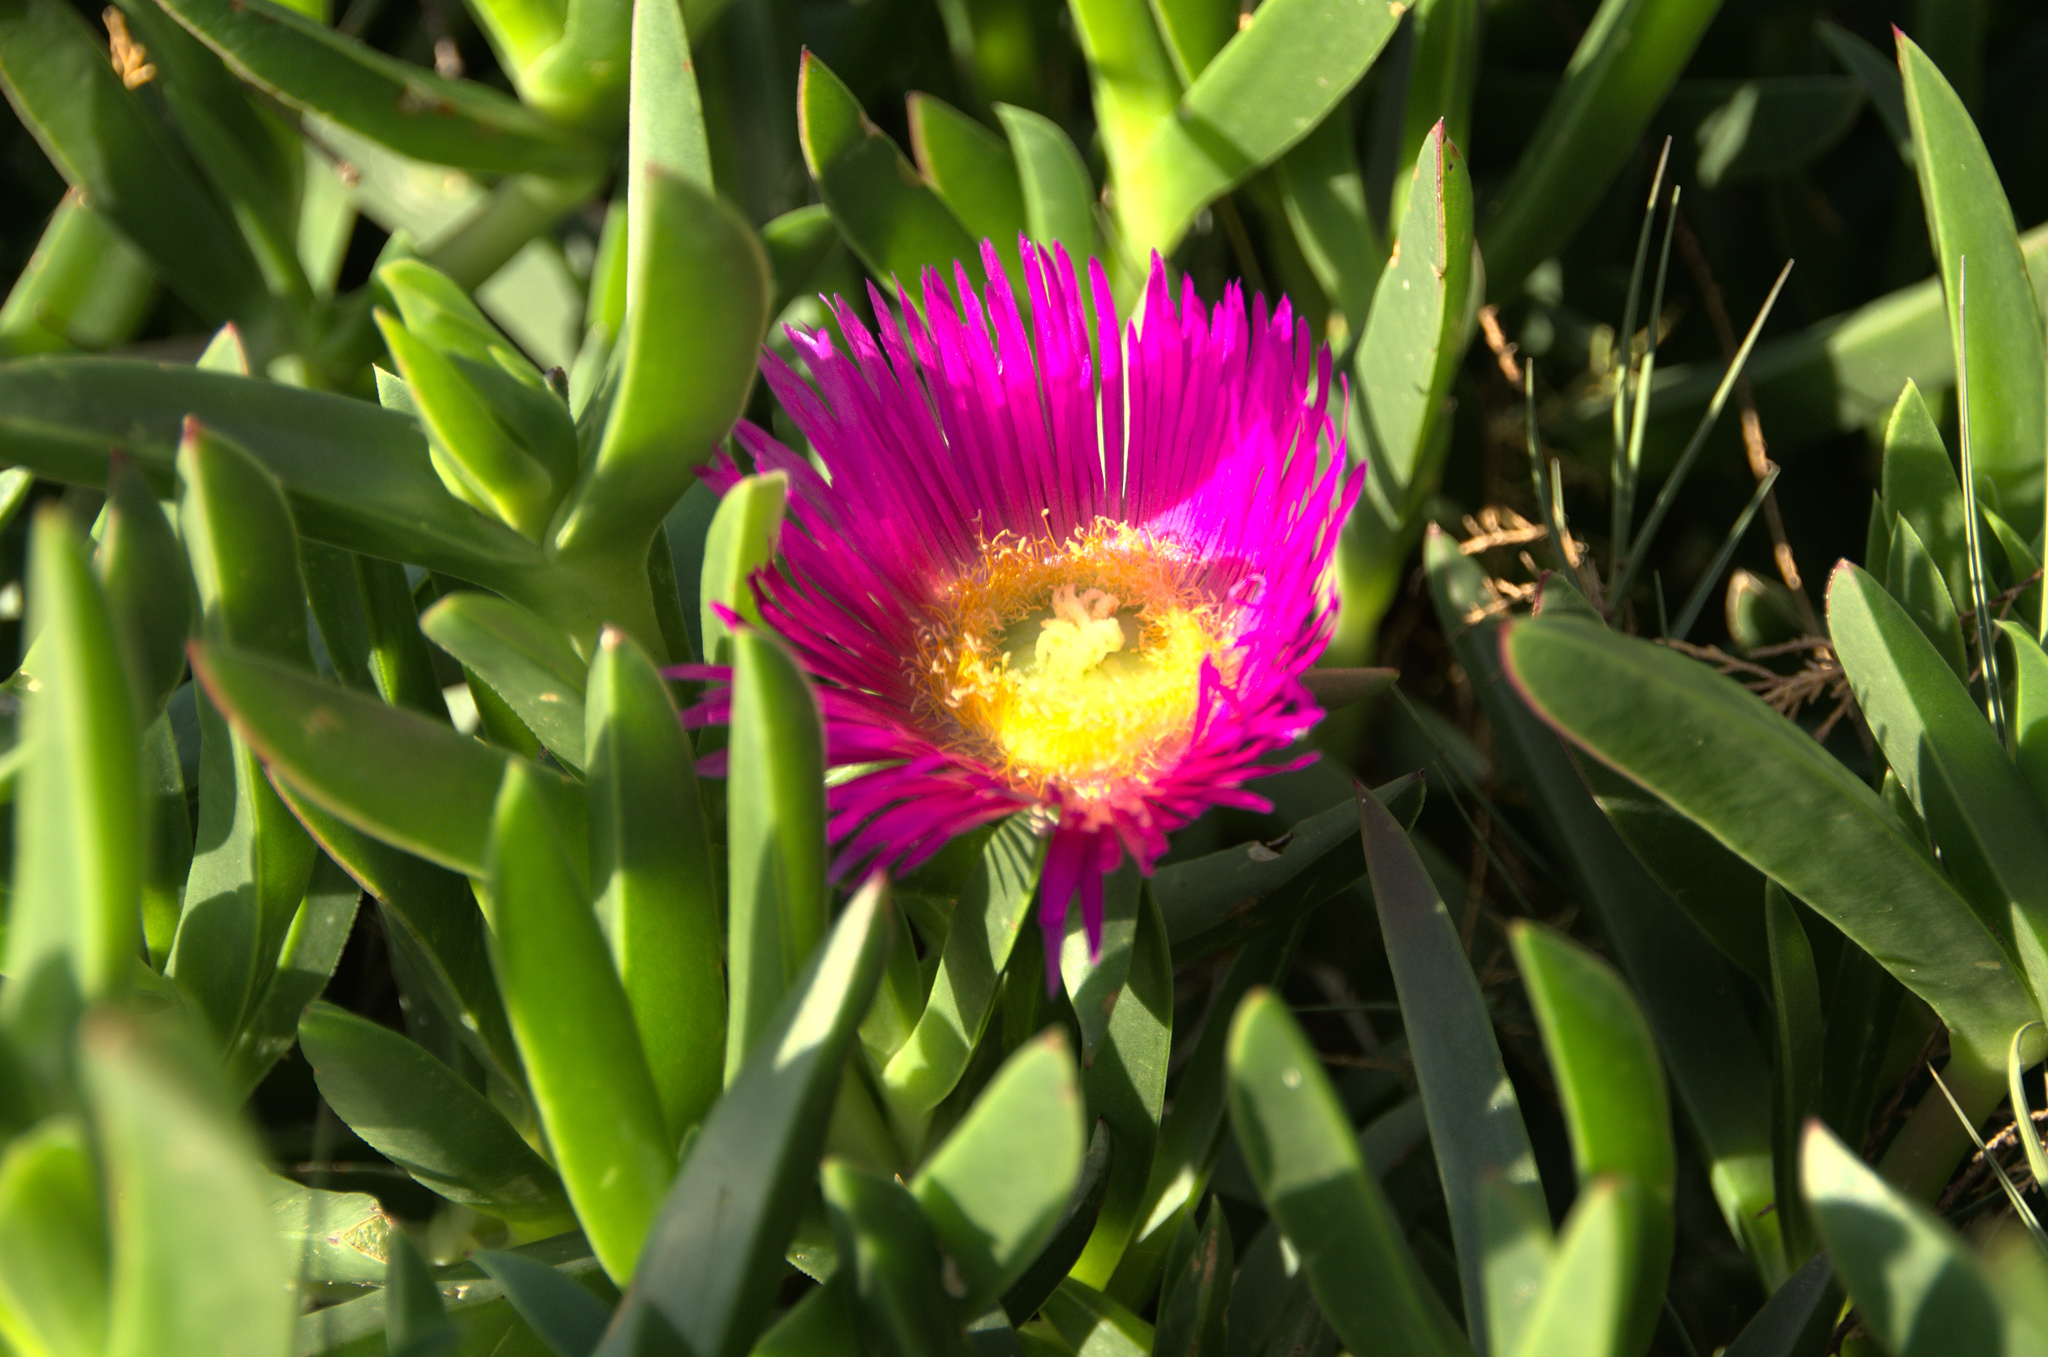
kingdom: Plantae
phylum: Tracheophyta
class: Magnoliopsida
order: Caryophyllales
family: Aizoaceae
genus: Carpobrotus
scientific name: Carpobrotus acinaciformis
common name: Sally-my-handsome
